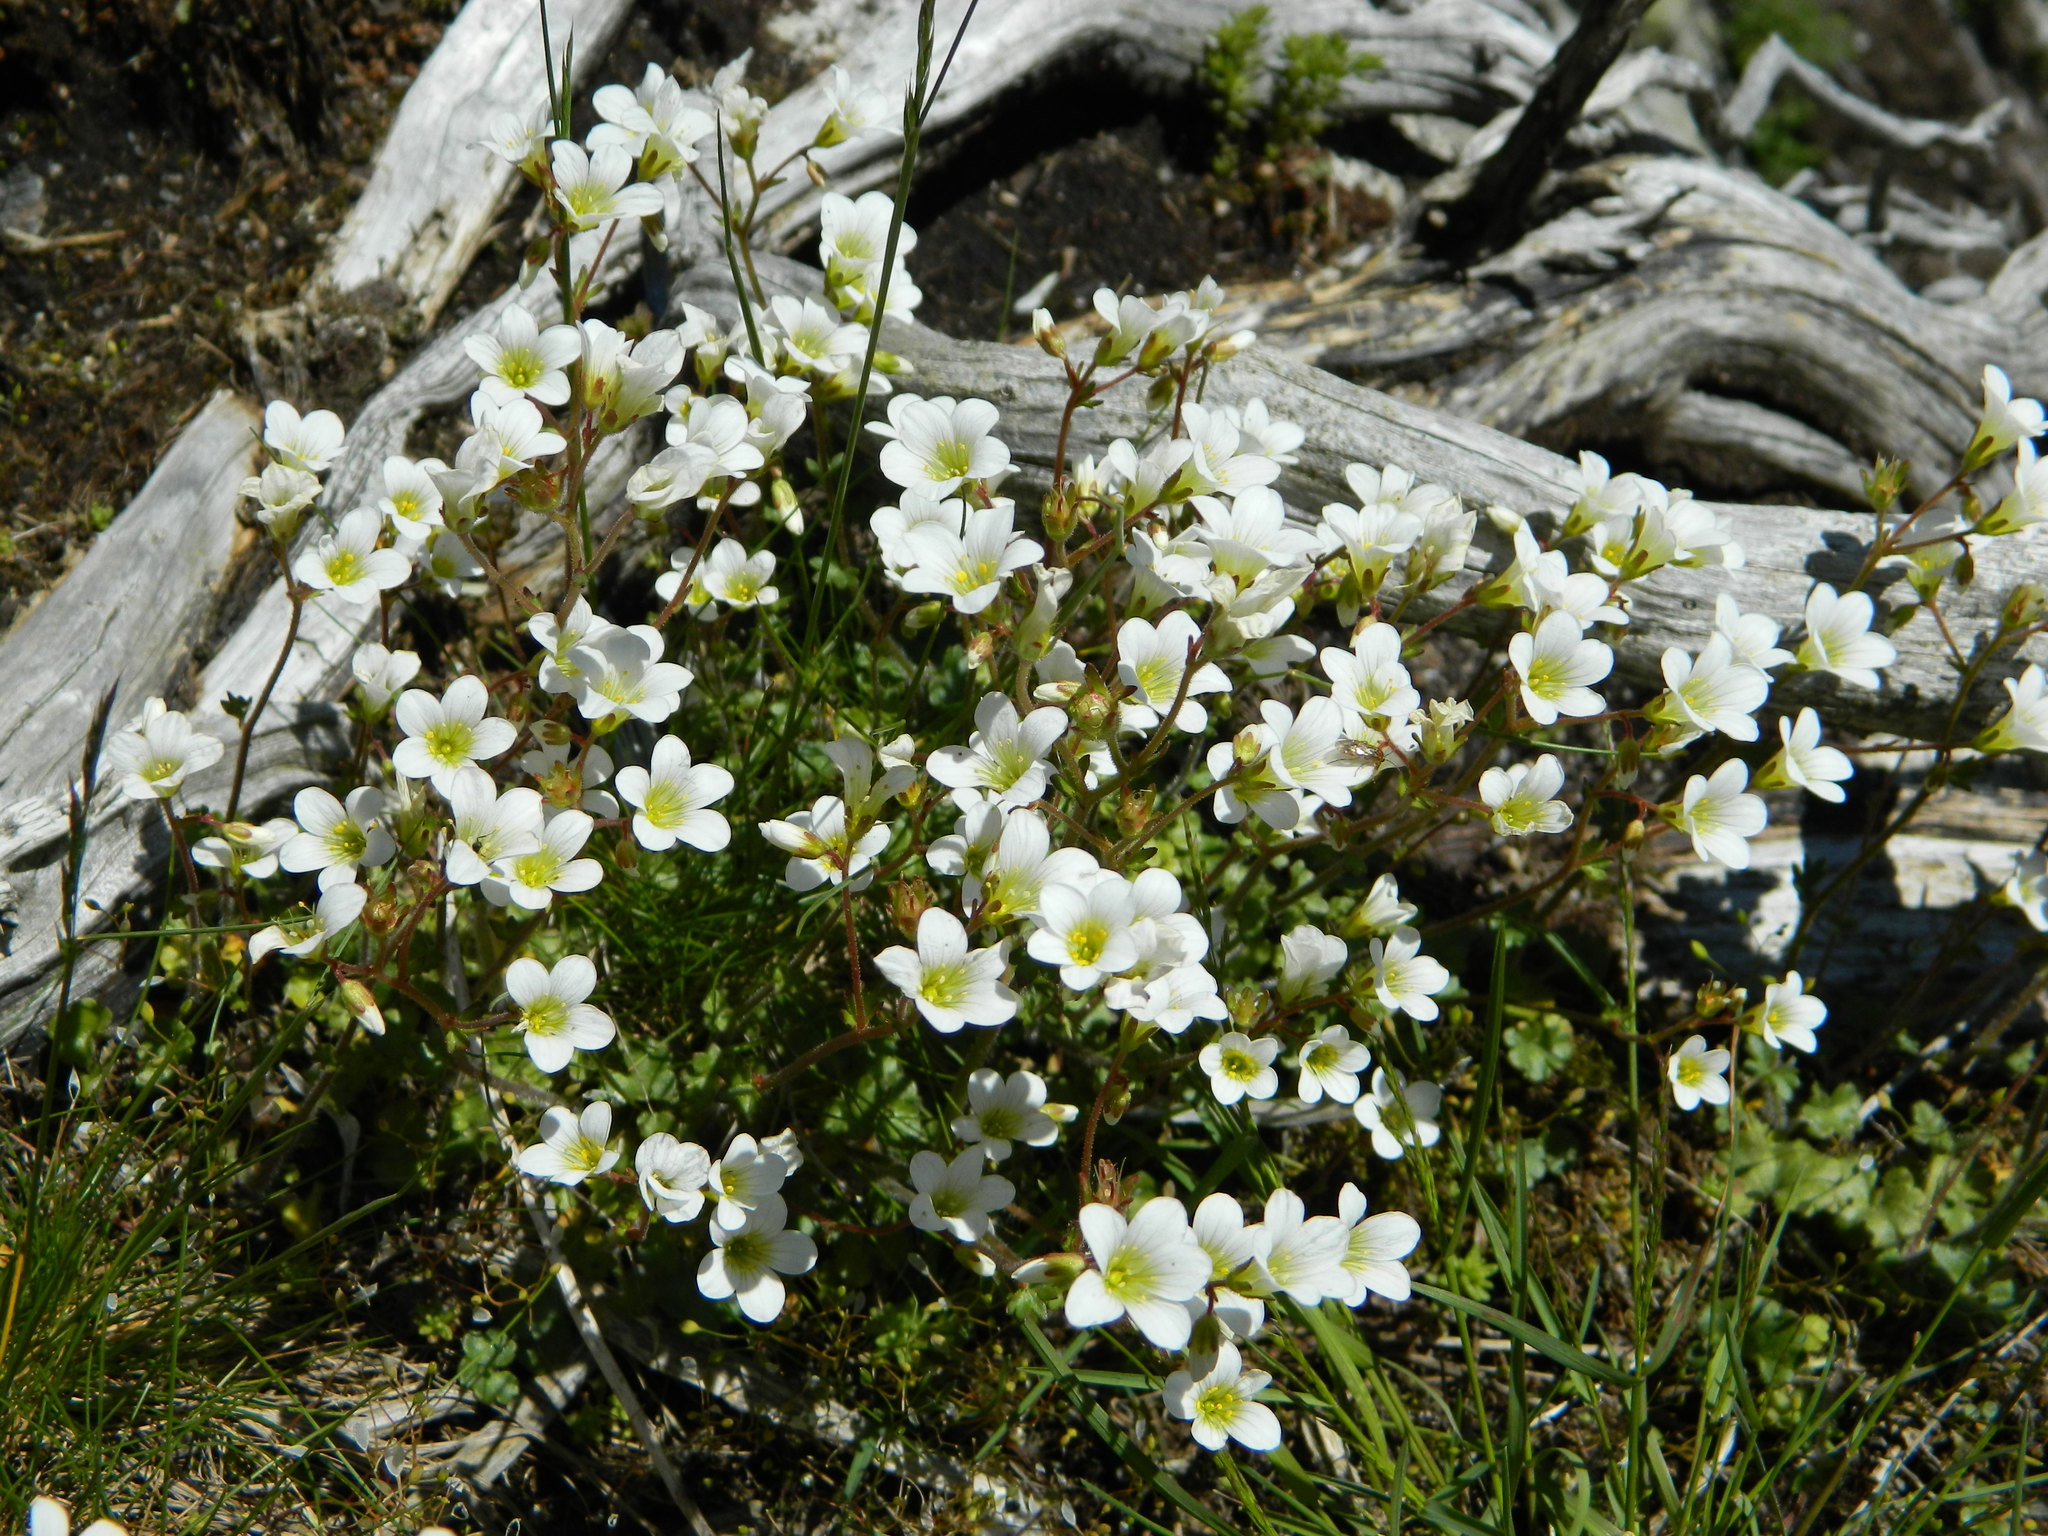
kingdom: Plantae
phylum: Tracheophyta
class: Magnoliopsida
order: Saxifragales
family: Saxifragaceae
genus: Saxifraga
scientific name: Saxifraga granulata
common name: Meadow saxifrage
